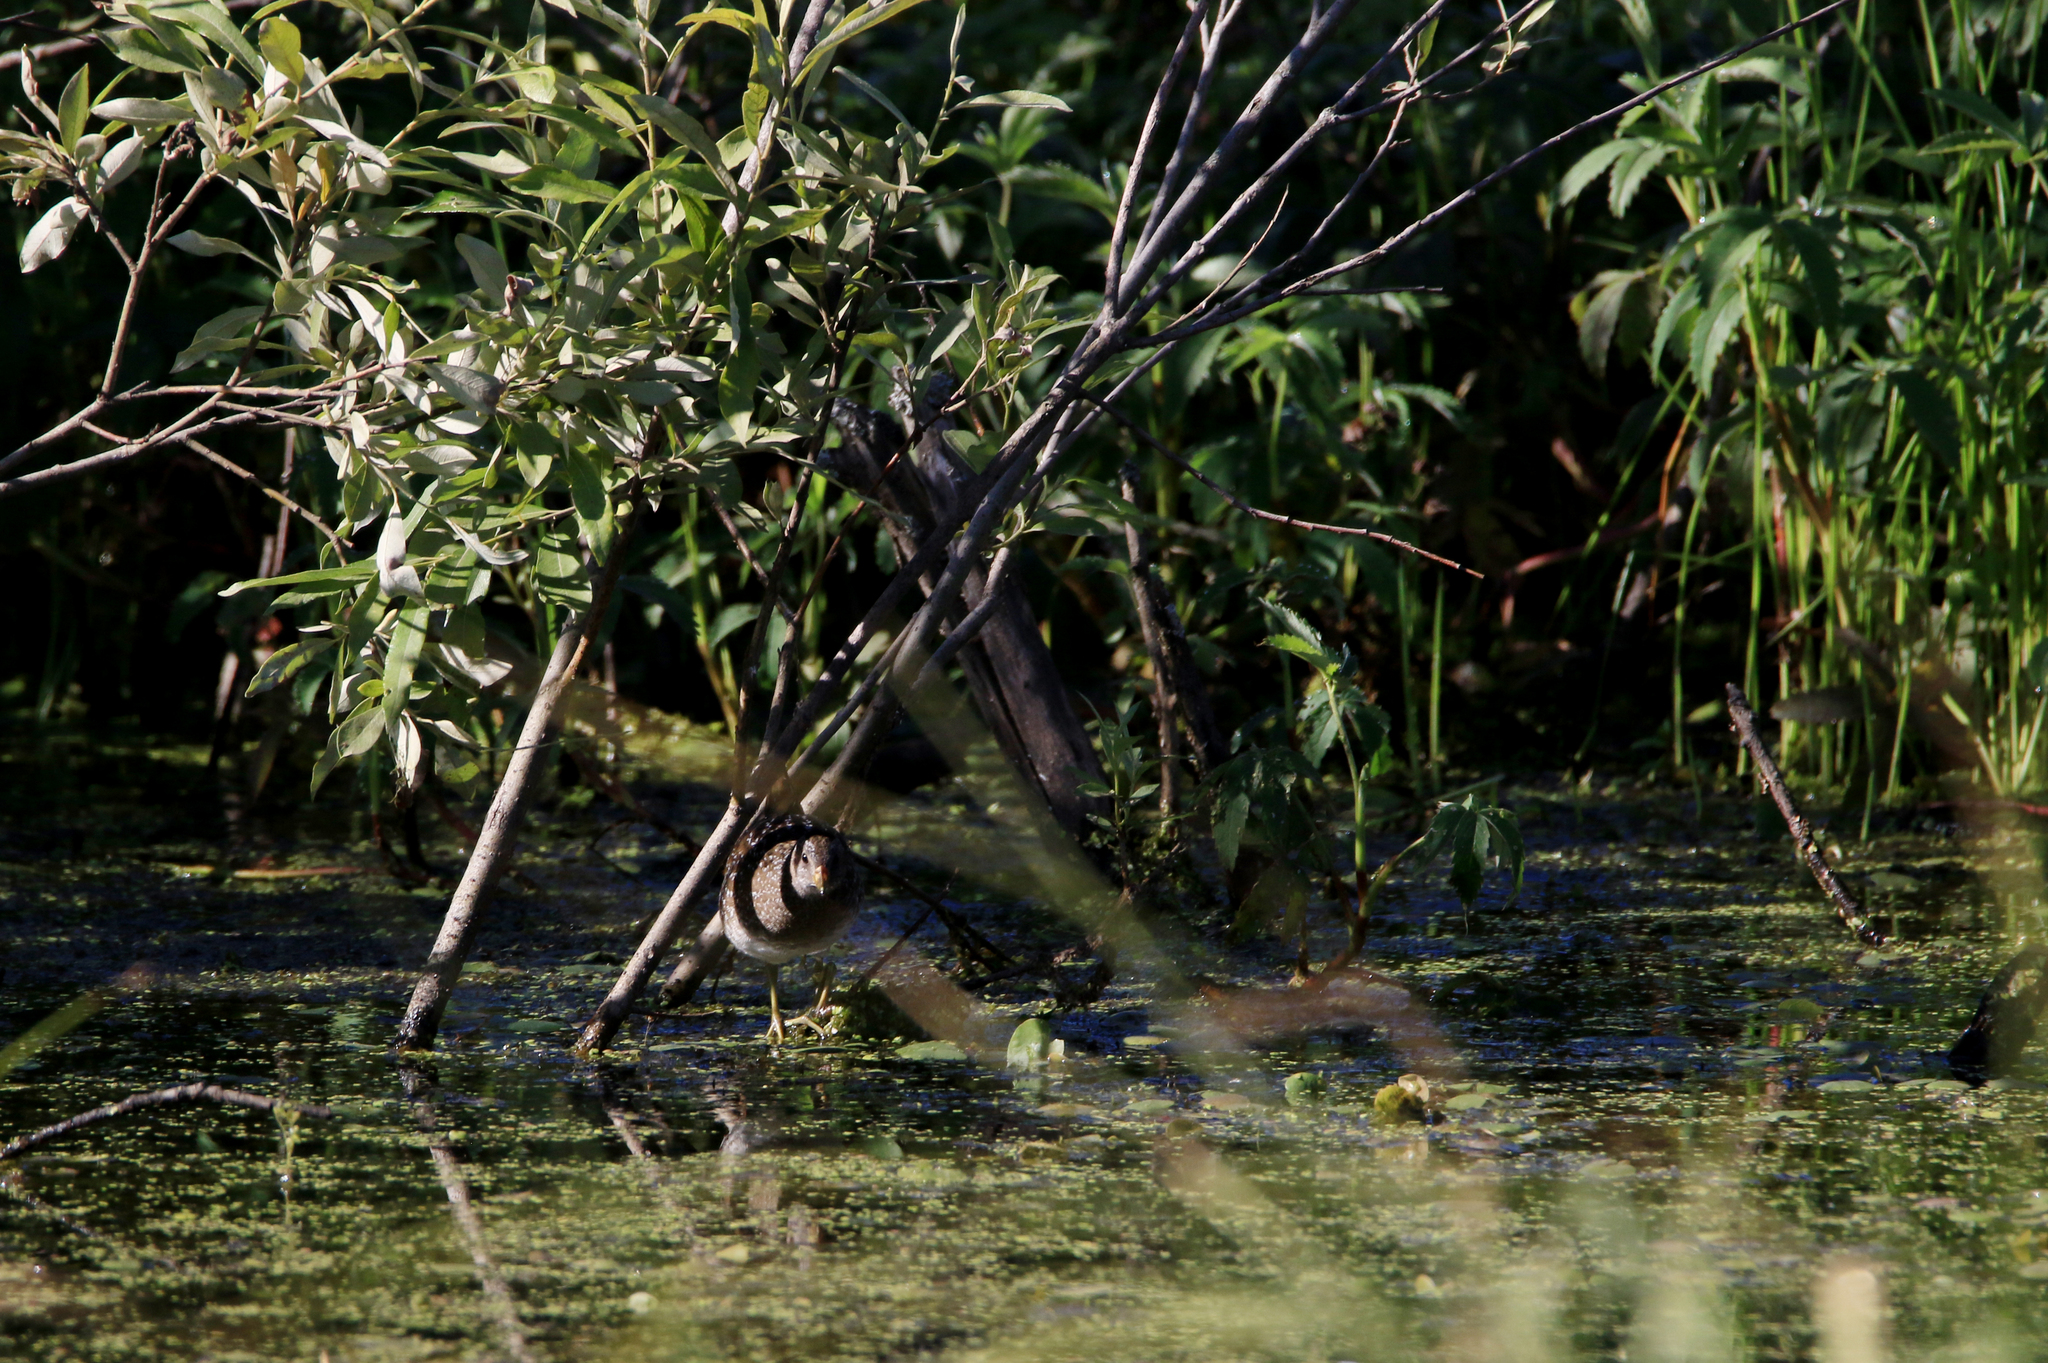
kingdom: Animalia
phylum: Chordata
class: Aves
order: Gruiformes
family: Rallidae
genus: Porzana
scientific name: Porzana porzana
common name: Spotted crake
